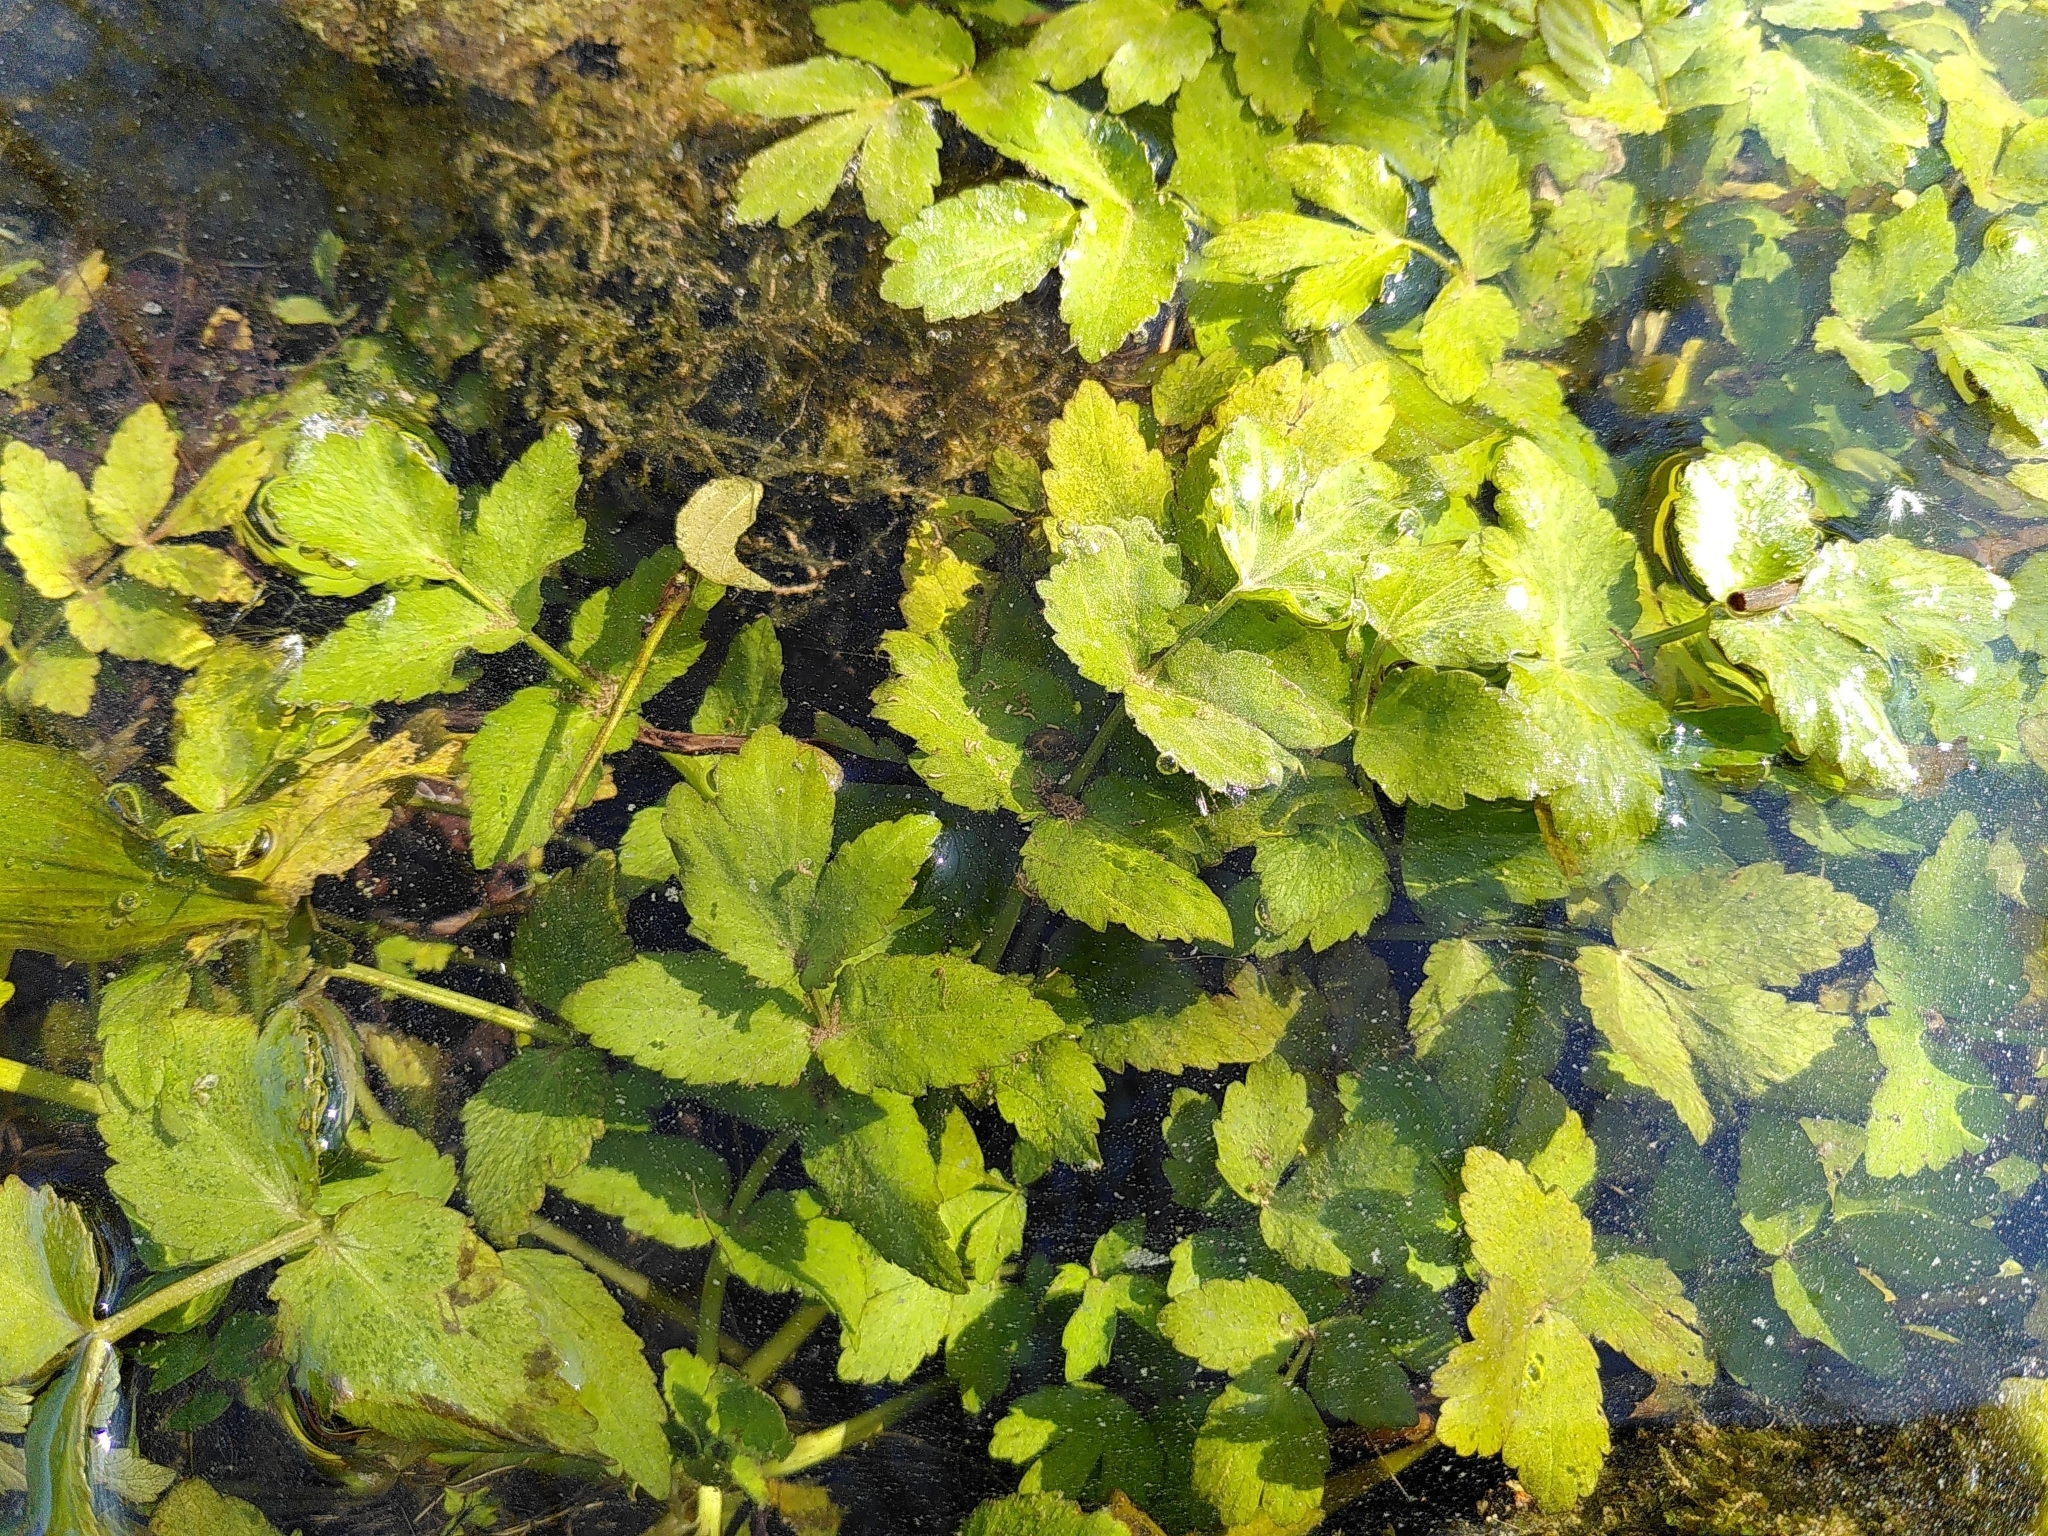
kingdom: Plantae
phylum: Tracheophyta
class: Magnoliopsida
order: Apiales
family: Apiaceae
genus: Helosciadium
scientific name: Helosciadium nodiflorum
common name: Fool's-watercress
